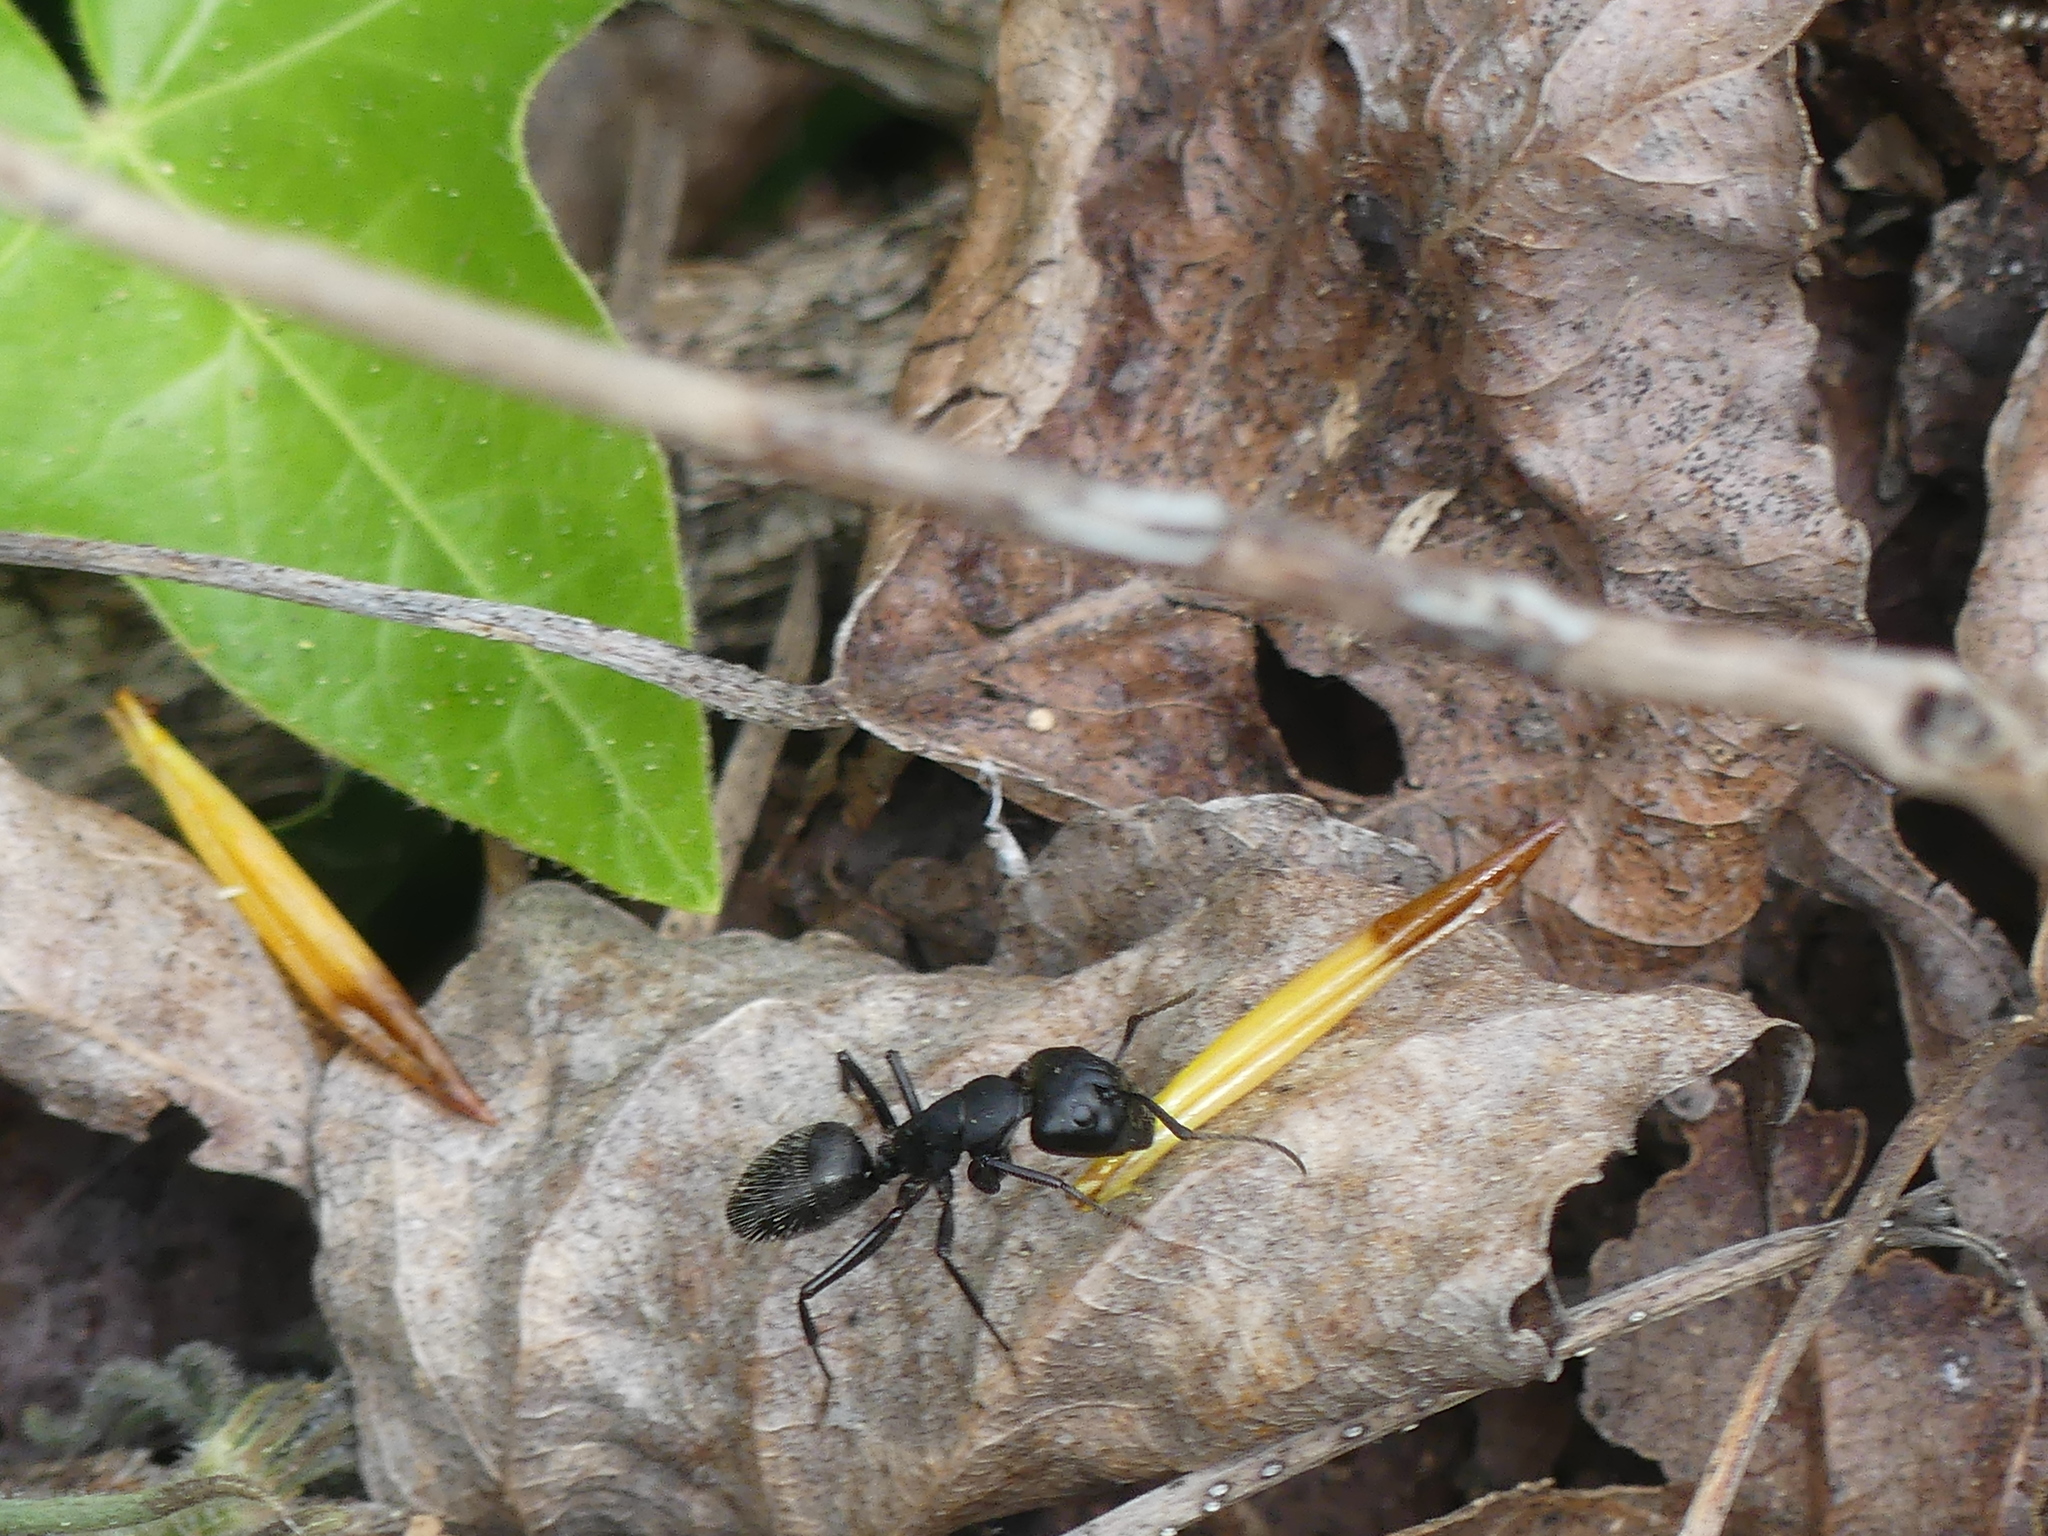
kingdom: Animalia
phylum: Arthropoda
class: Insecta
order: Hymenoptera
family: Formicidae
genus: Camponotus
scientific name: Camponotus vagus
